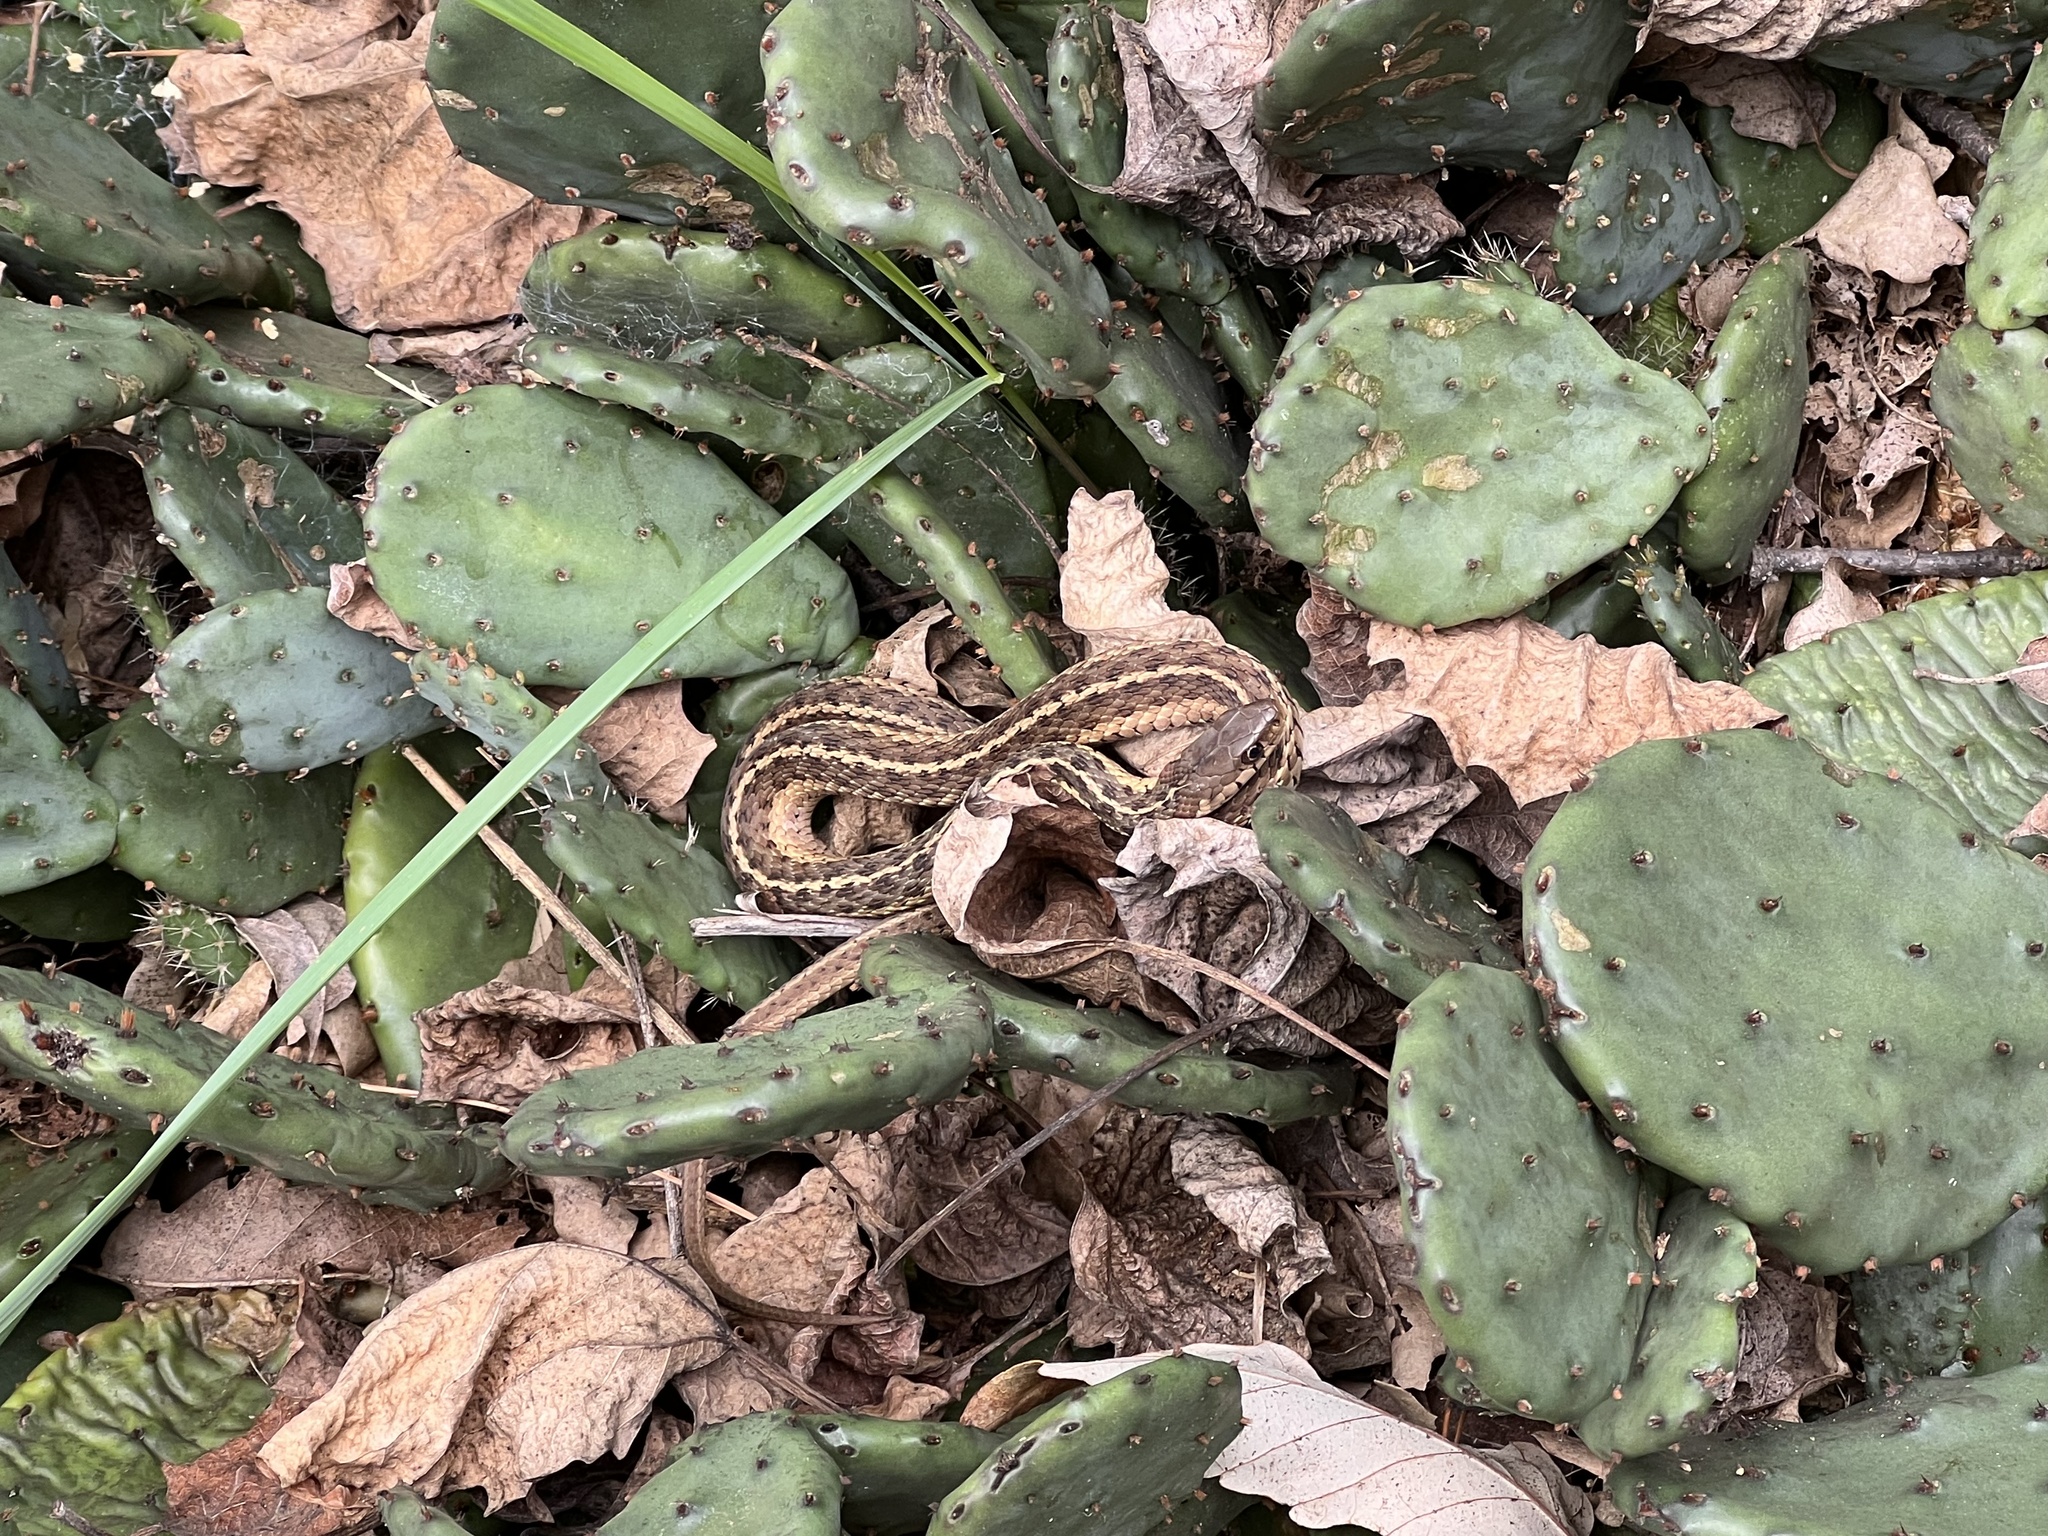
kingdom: Animalia
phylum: Chordata
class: Squamata
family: Colubridae
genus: Thamnophis
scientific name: Thamnophis sirtalis
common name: Common garter snake
